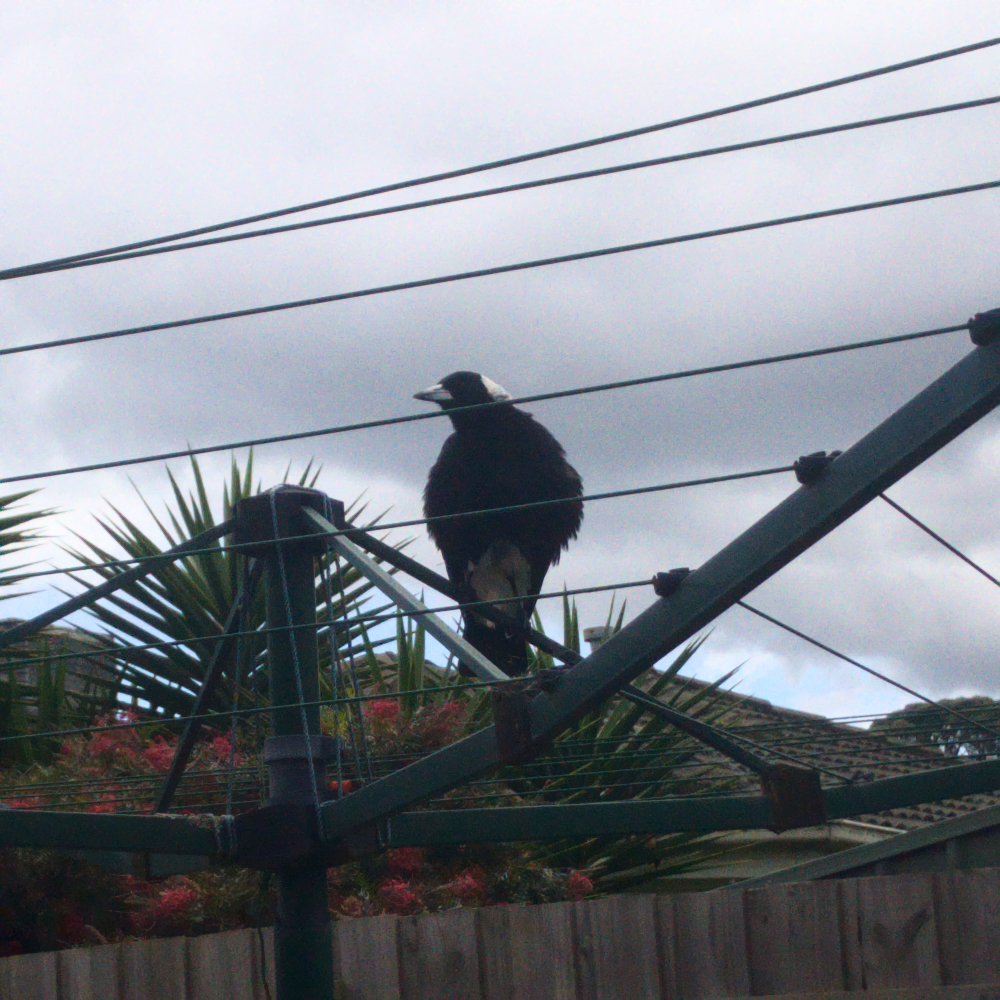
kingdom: Animalia
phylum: Chordata
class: Aves
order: Passeriformes
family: Cracticidae
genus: Gymnorhina
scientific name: Gymnorhina tibicen
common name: Australian magpie
